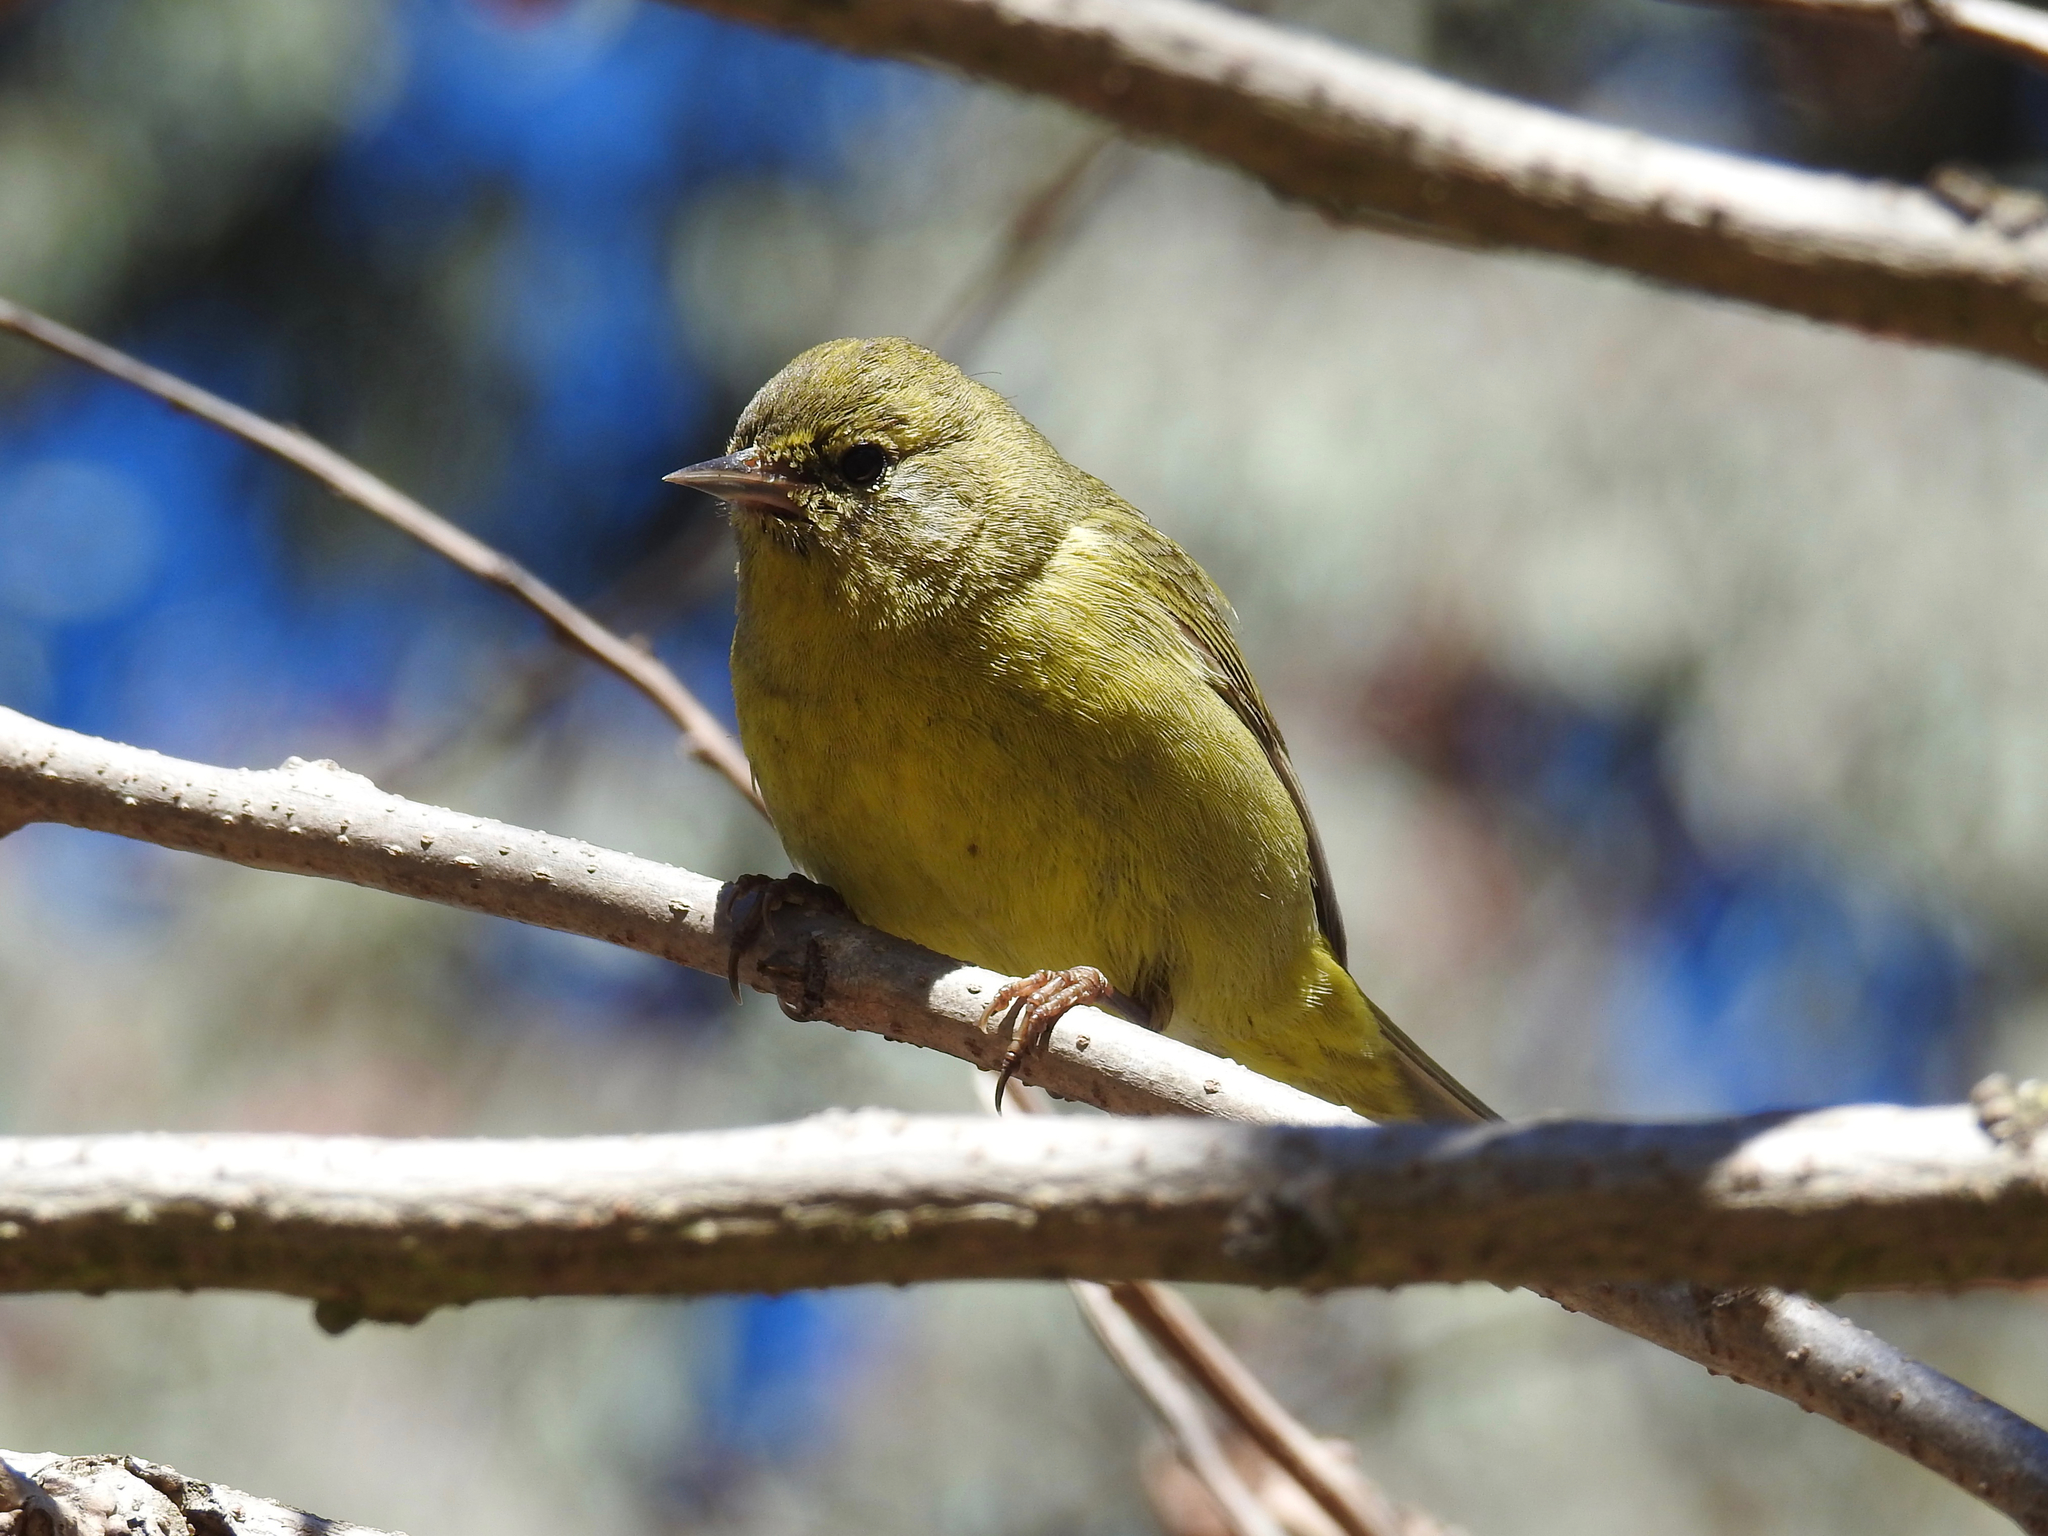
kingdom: Animalia
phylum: Chordata
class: Aves
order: Passeriformes
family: Parulidae
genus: Leiothlypis
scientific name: Leiothlypis celata
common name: Orange-crowned warbler
